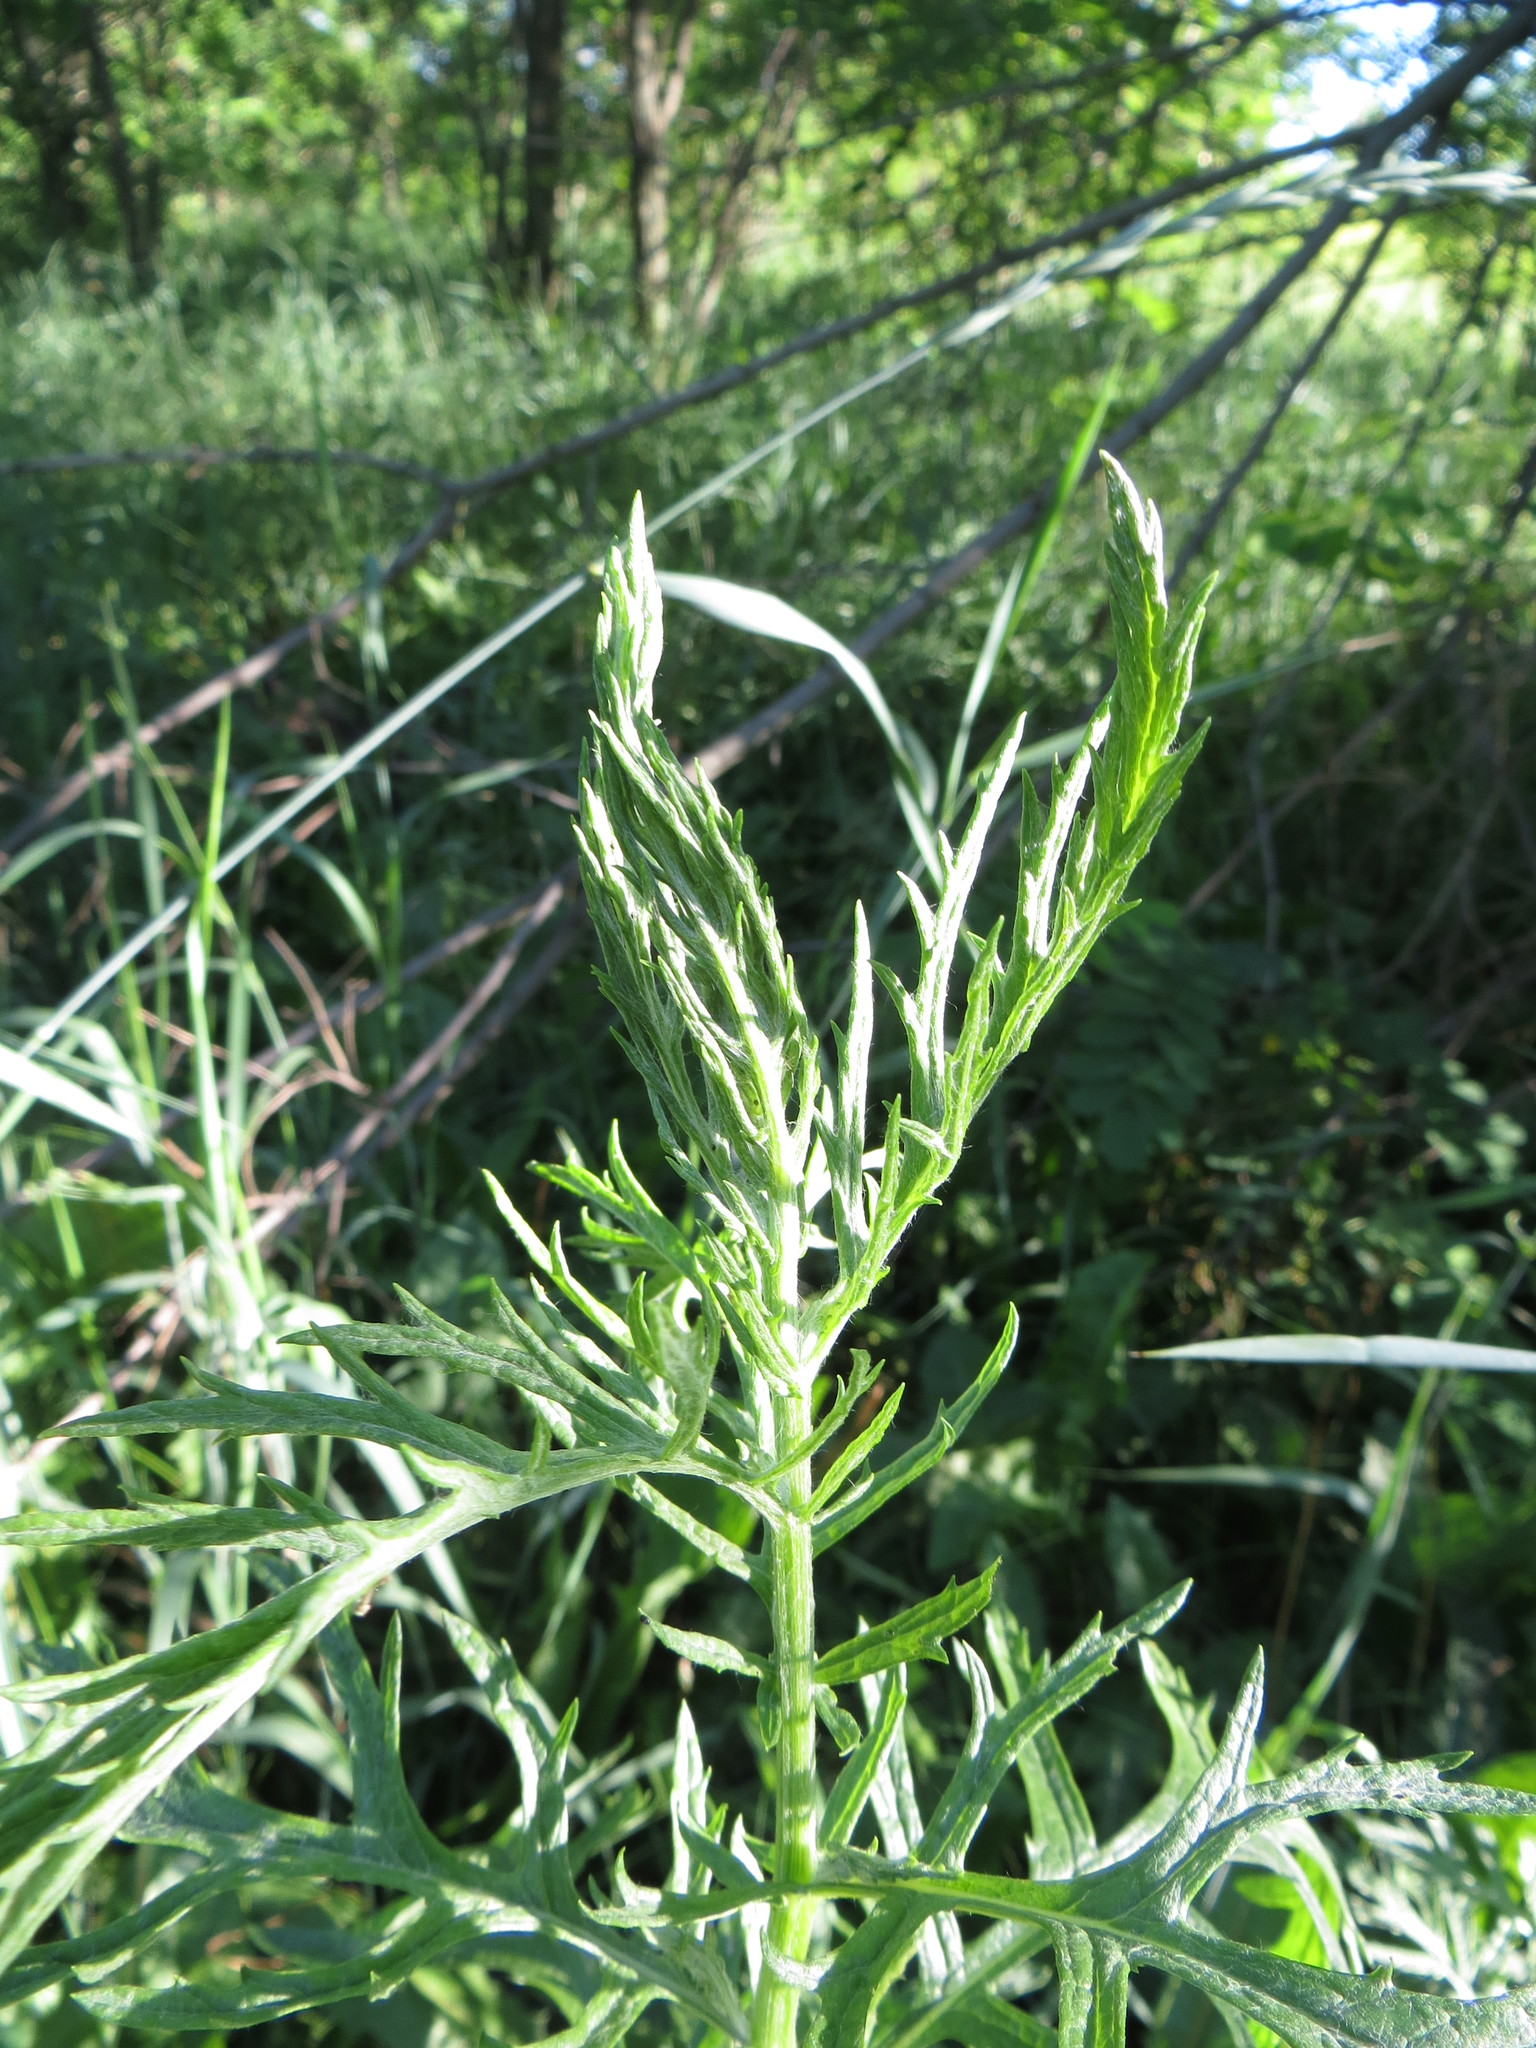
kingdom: Plantae
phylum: Tracheophyta
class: Magnoliopsida
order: Asterales
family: Asteraceae
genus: Jacobaea
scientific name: Jacobaea erucifolia
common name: Hoary ragwort
